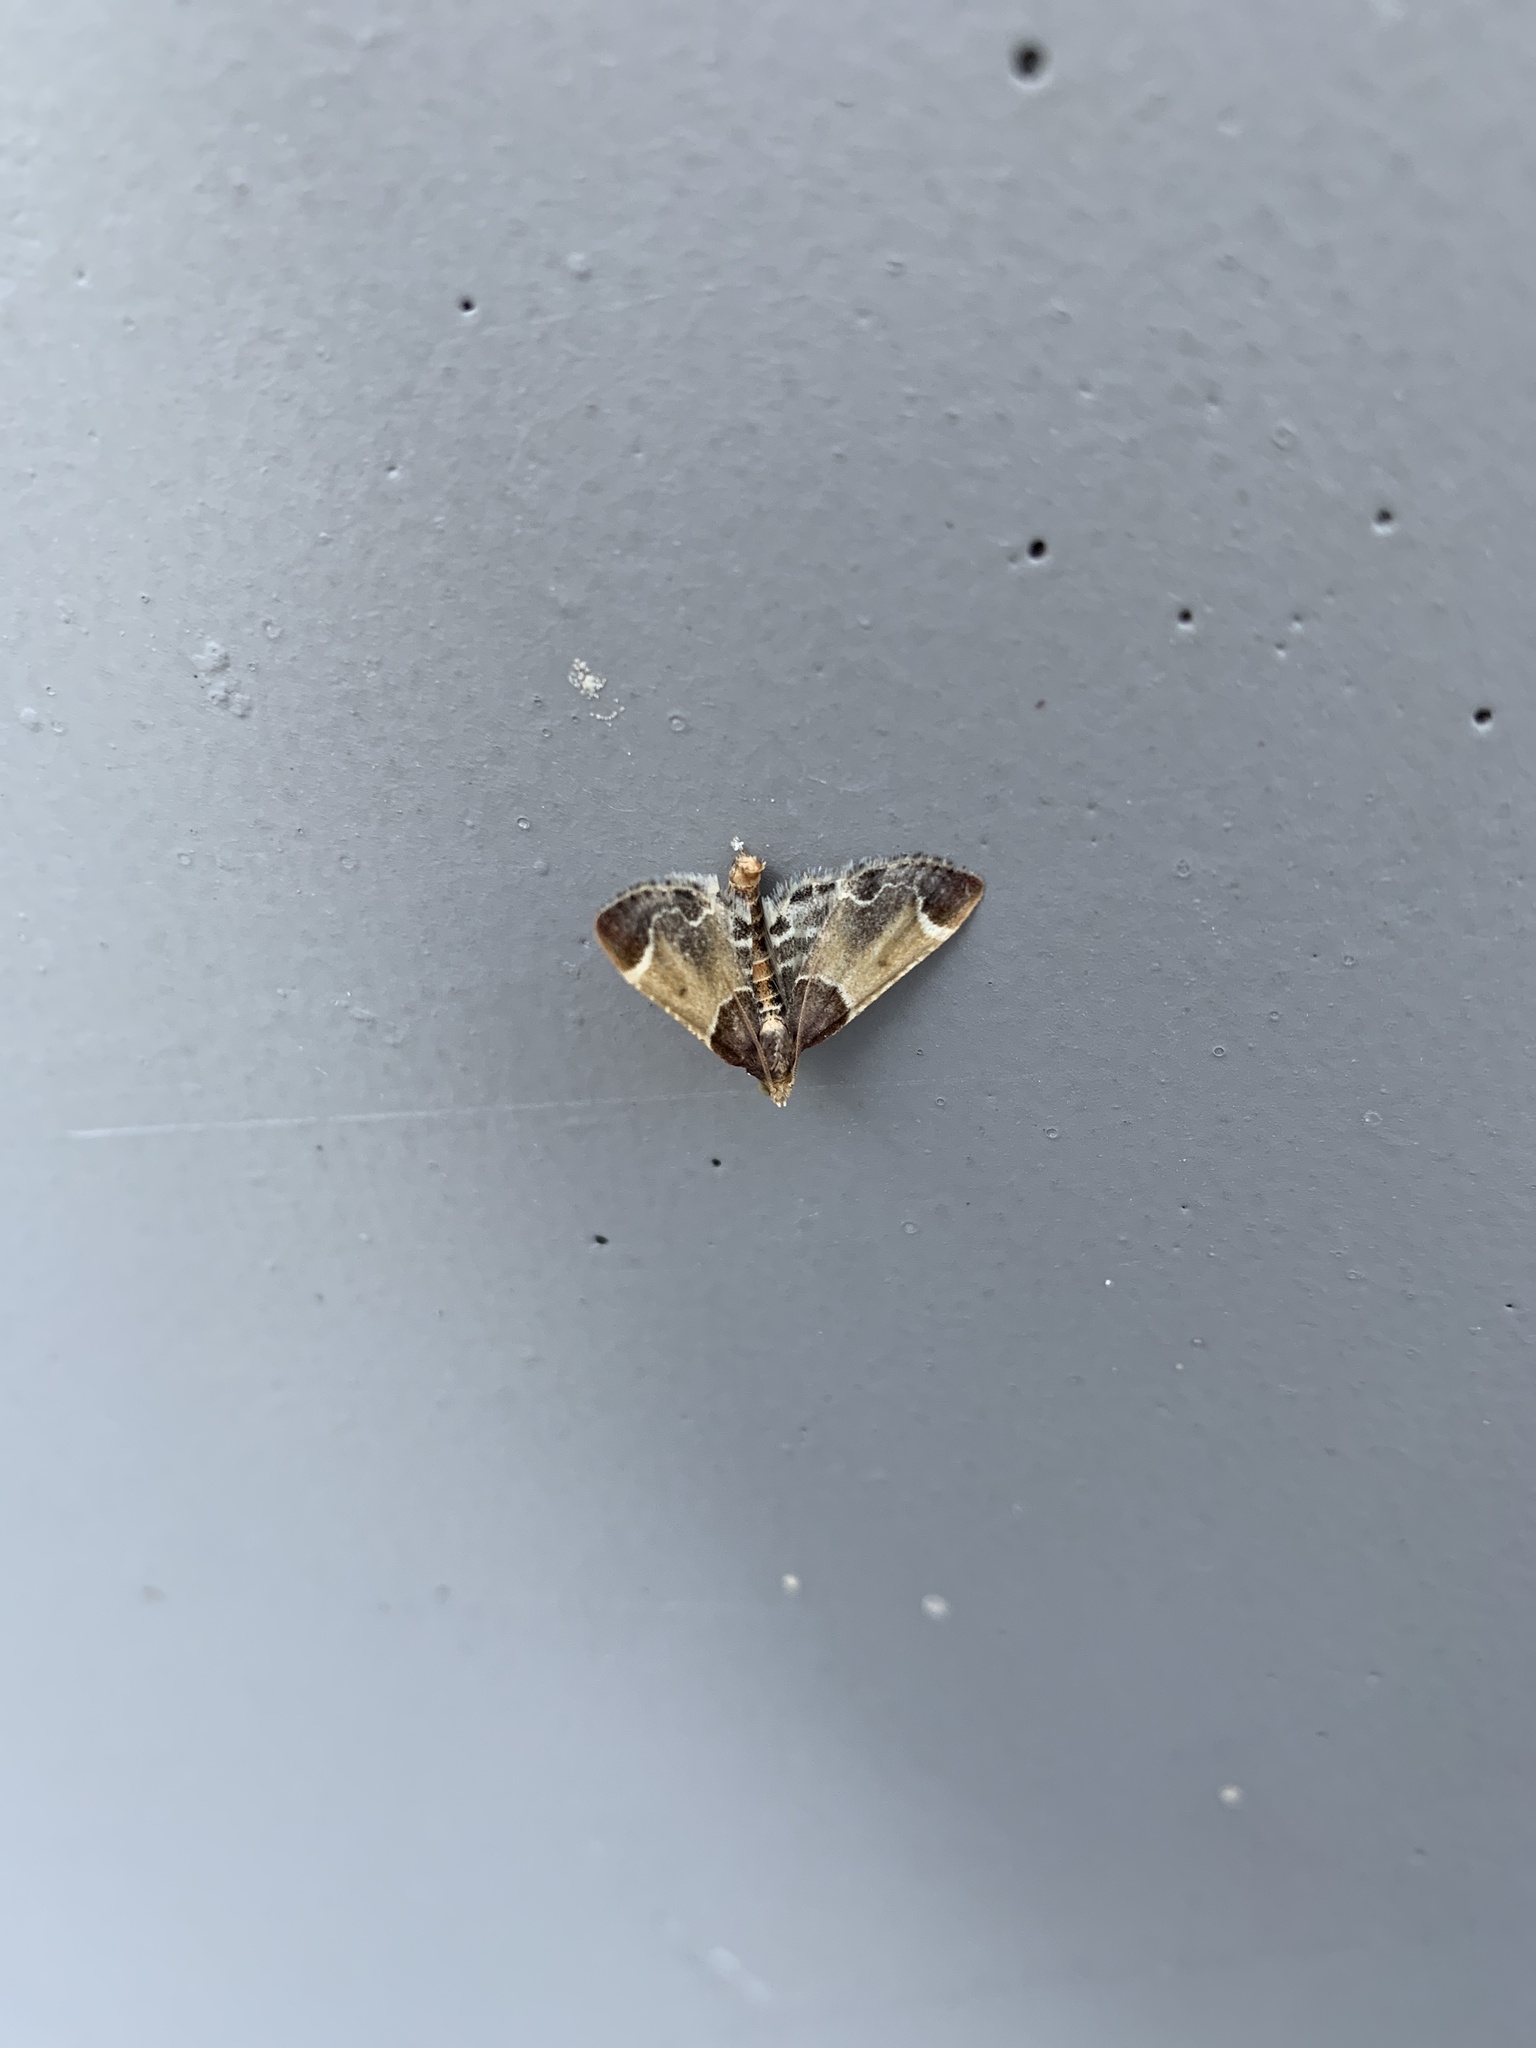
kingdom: Animalia
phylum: Arthropoda
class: Insecta
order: Lepidoptera
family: Pyralidae
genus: Pyralis
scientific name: Pyralis farinalis
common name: Meal moth
